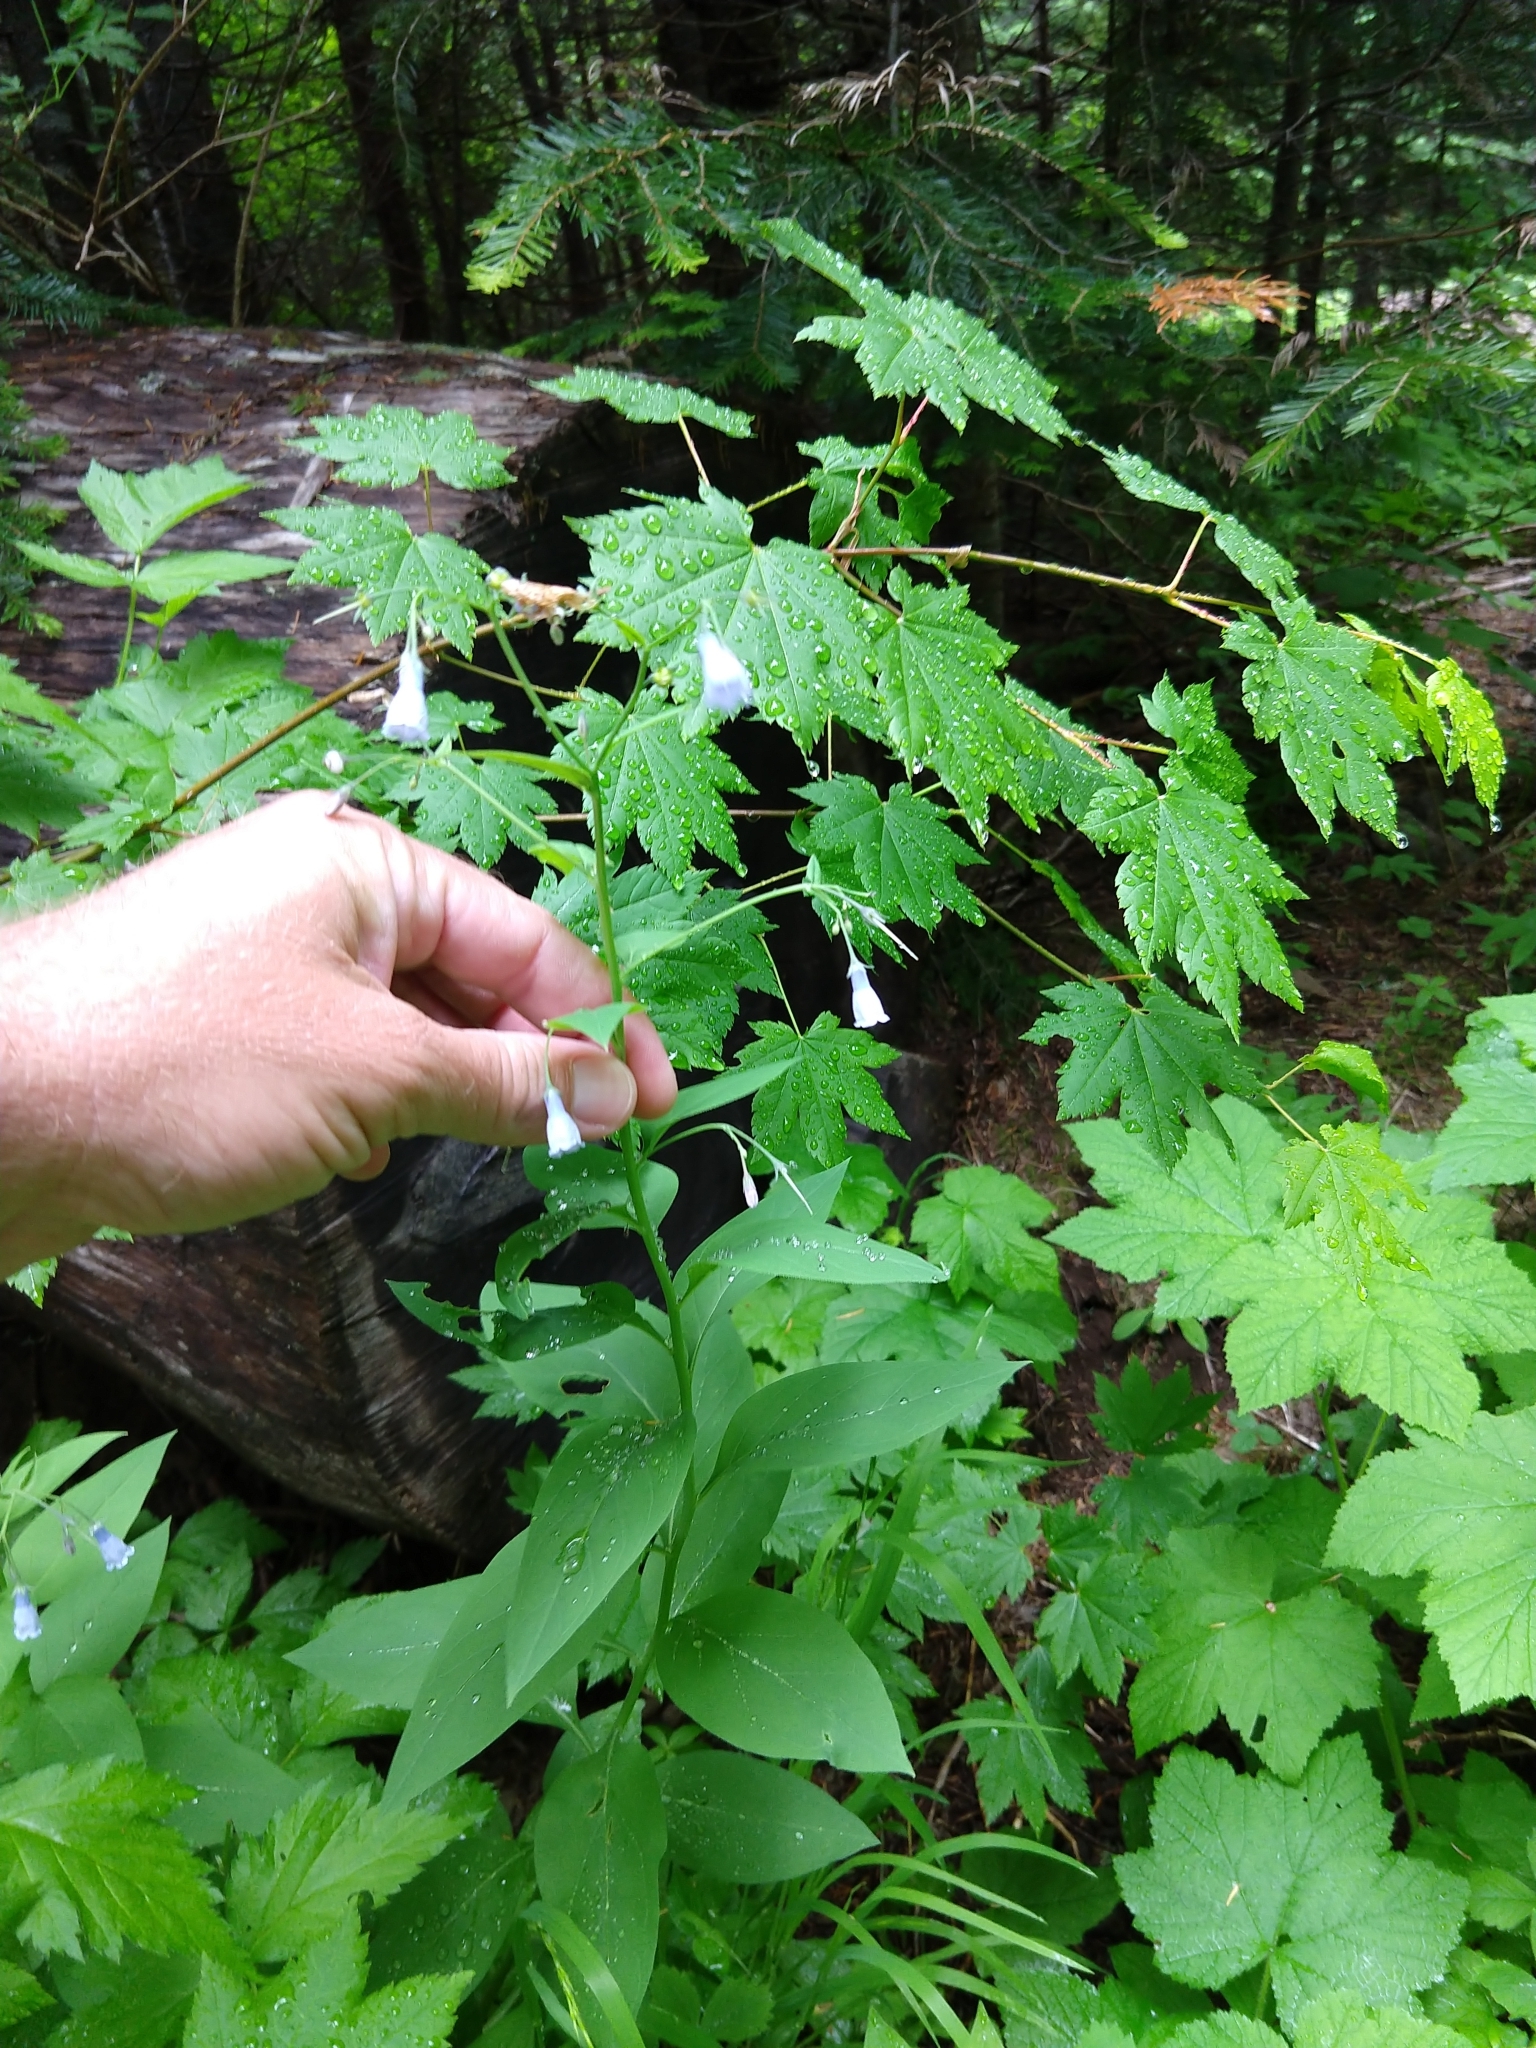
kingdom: Plantae
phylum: Tracheophyta
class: Magnoliopsida
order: Boraginales
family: Boraginaceae
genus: Mertensia
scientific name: Mertensia paniculata
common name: Panicled bluebells
